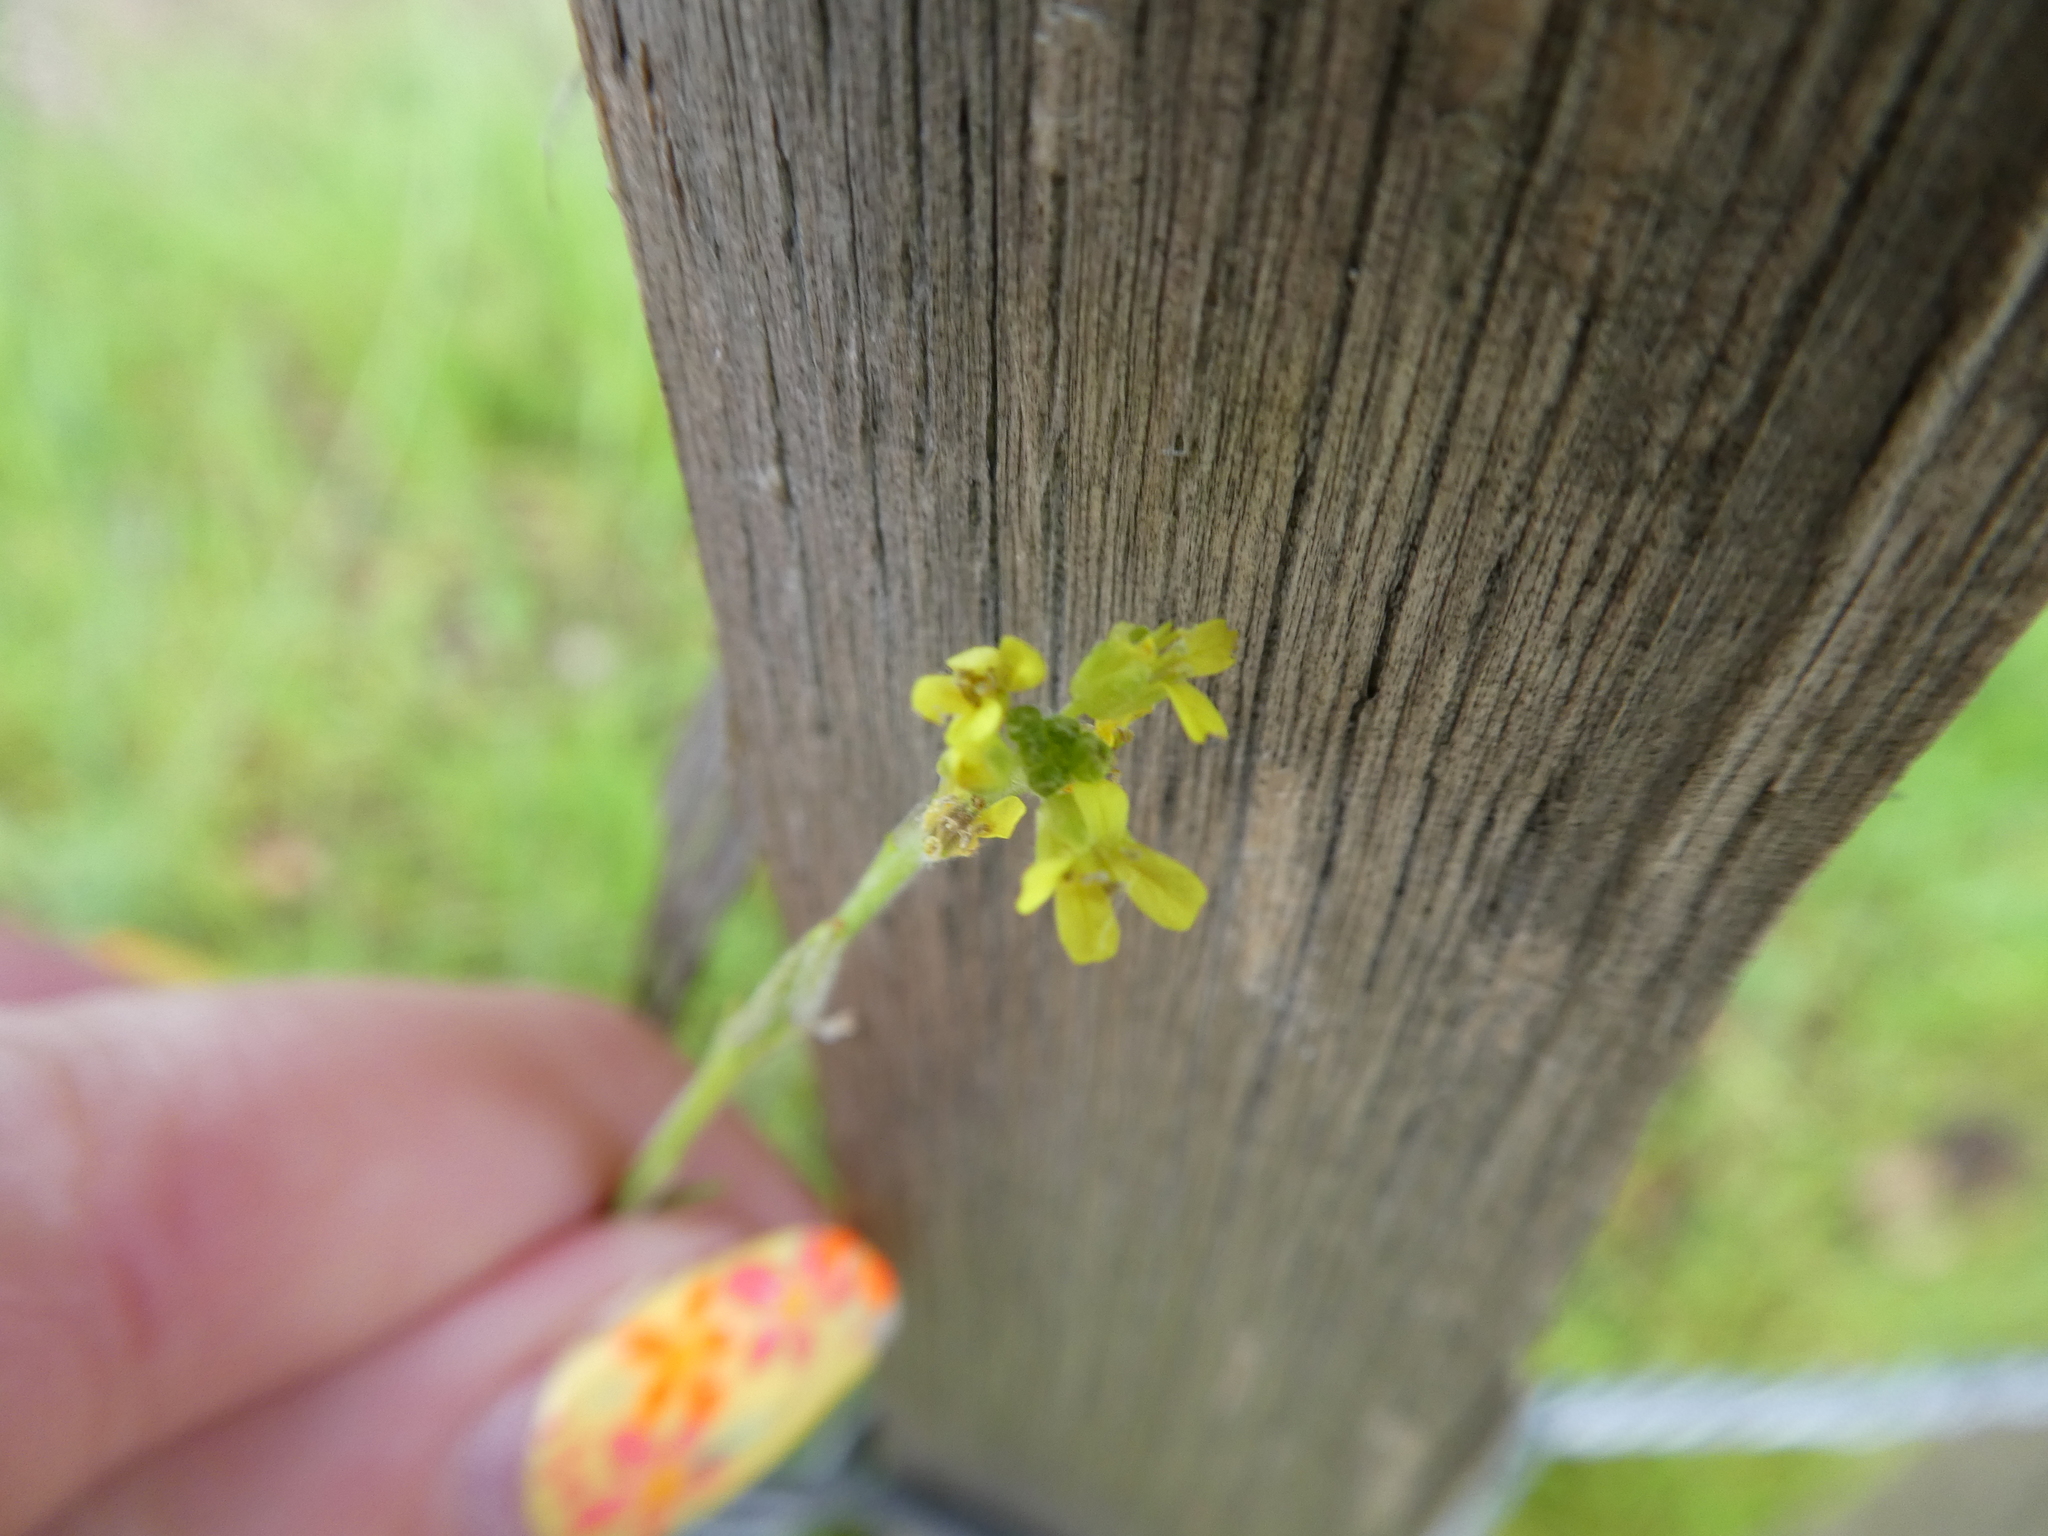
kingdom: Plantae
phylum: Tracheophyta
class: Magnoliopsida
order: Brassicales
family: Brassicaceae
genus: Sisymbrium
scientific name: Sisymbrium officinale
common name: Hedge mustard
